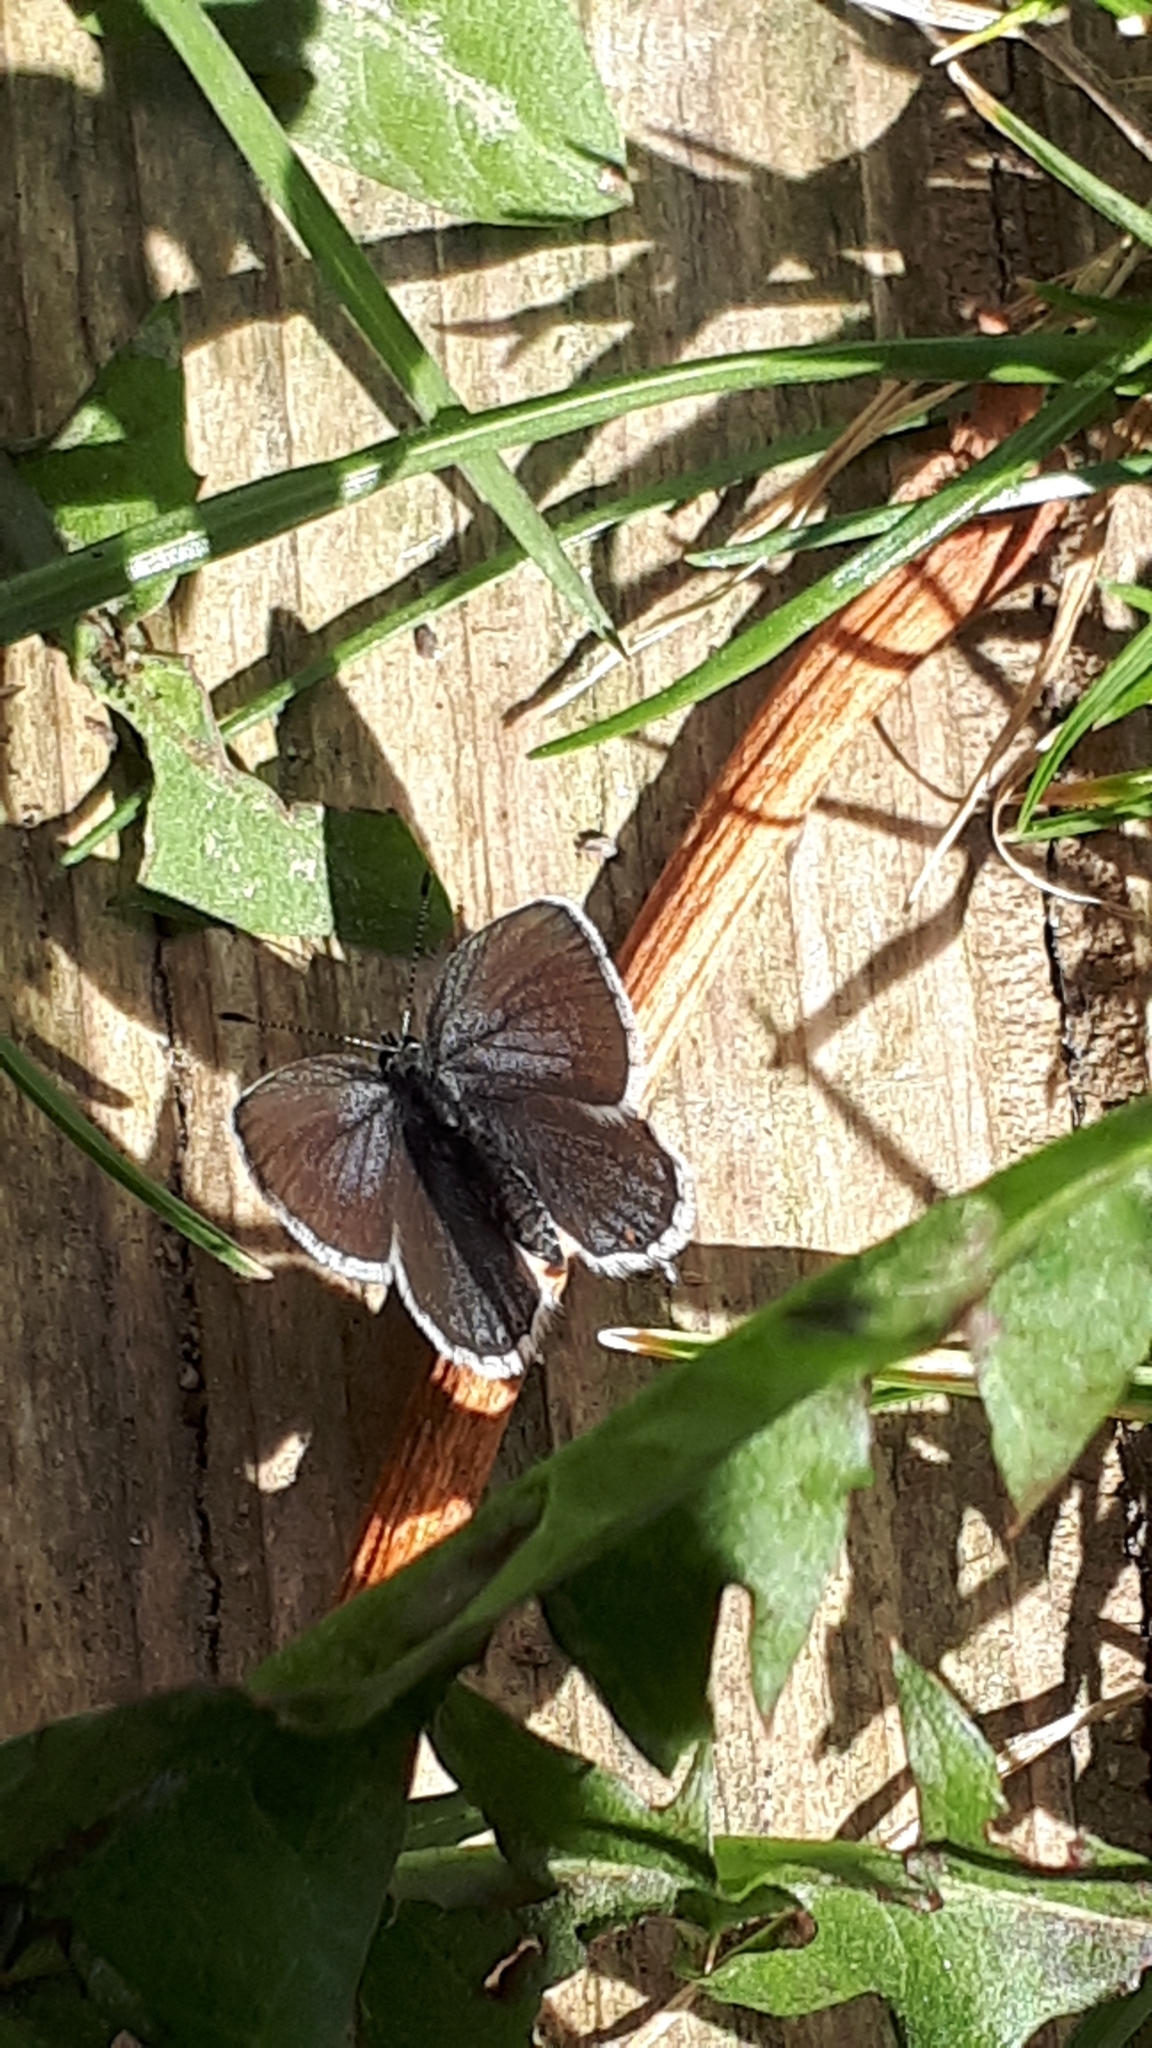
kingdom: Animalia
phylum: Arthropoda
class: Insecta
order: Lepidoptera
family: Lycaenidae
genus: Elkalyce
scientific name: Elkalyce argiades
